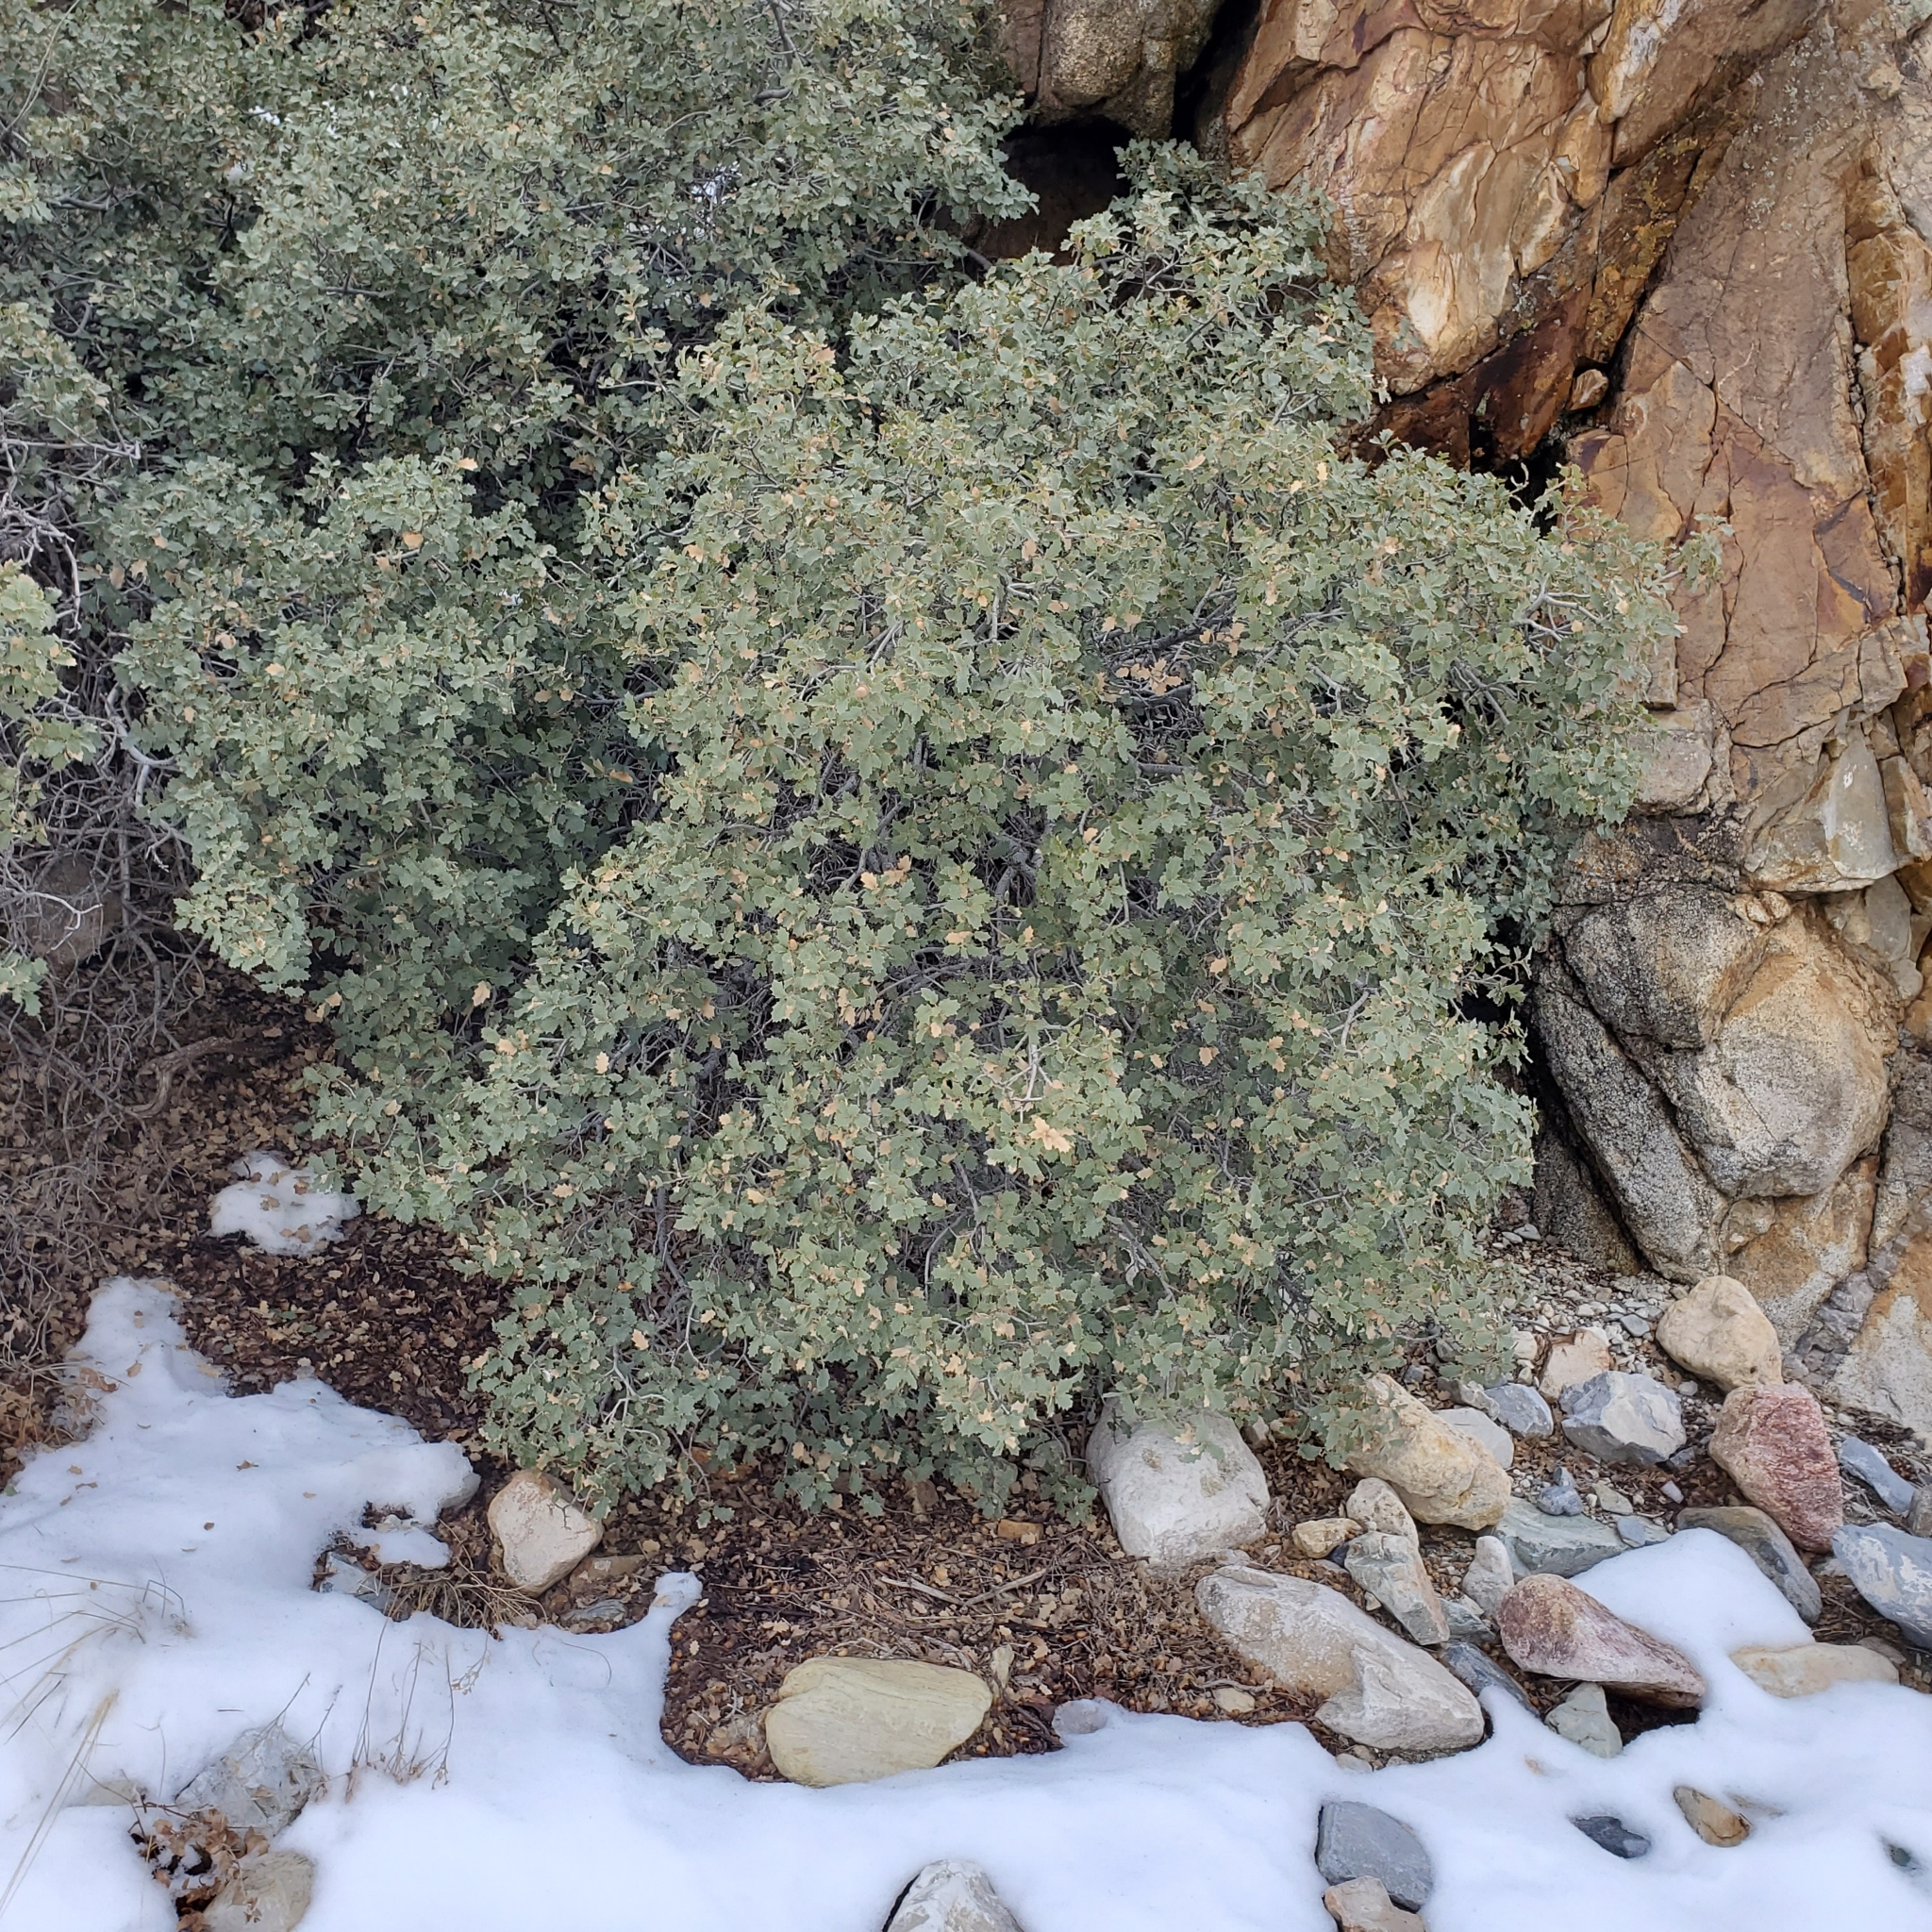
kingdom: Plantae
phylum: Tracheophyta
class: Magnoliopsida
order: Fagales
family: Fagaceae
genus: Quercus
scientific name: Quercus turbinella
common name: Sonoran scrub oak
